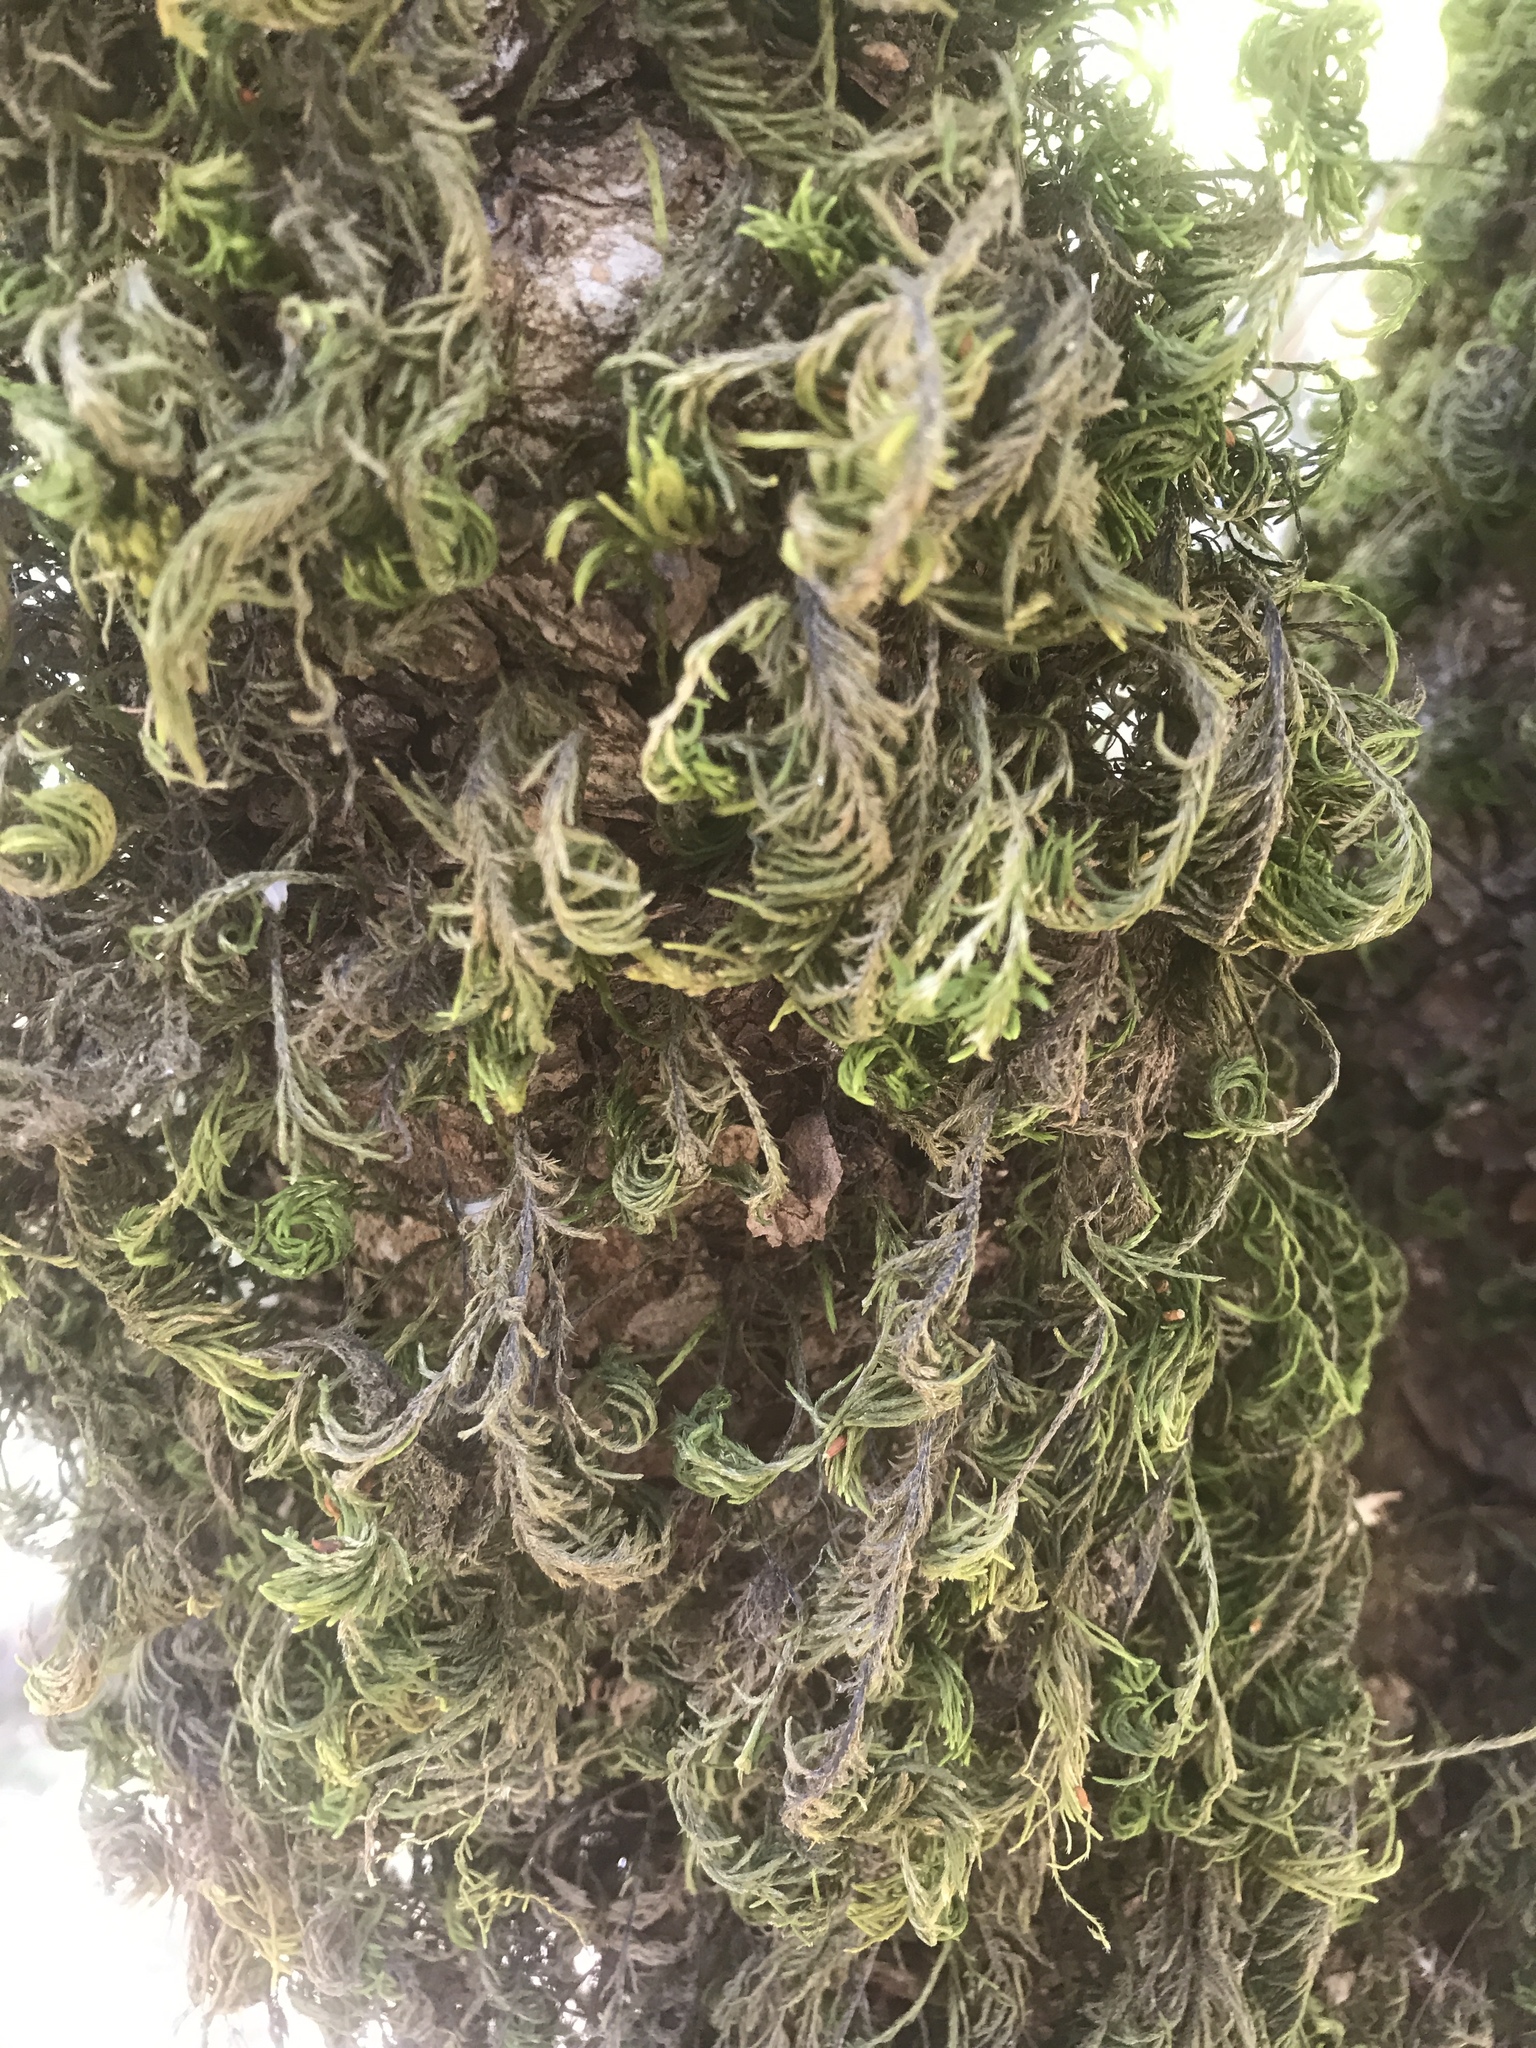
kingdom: Plantae
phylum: Bryophyta
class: Bryopsida
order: Hypnales
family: Cryphaeaceae
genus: Dendroalsia
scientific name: Dendroalsia abietina
